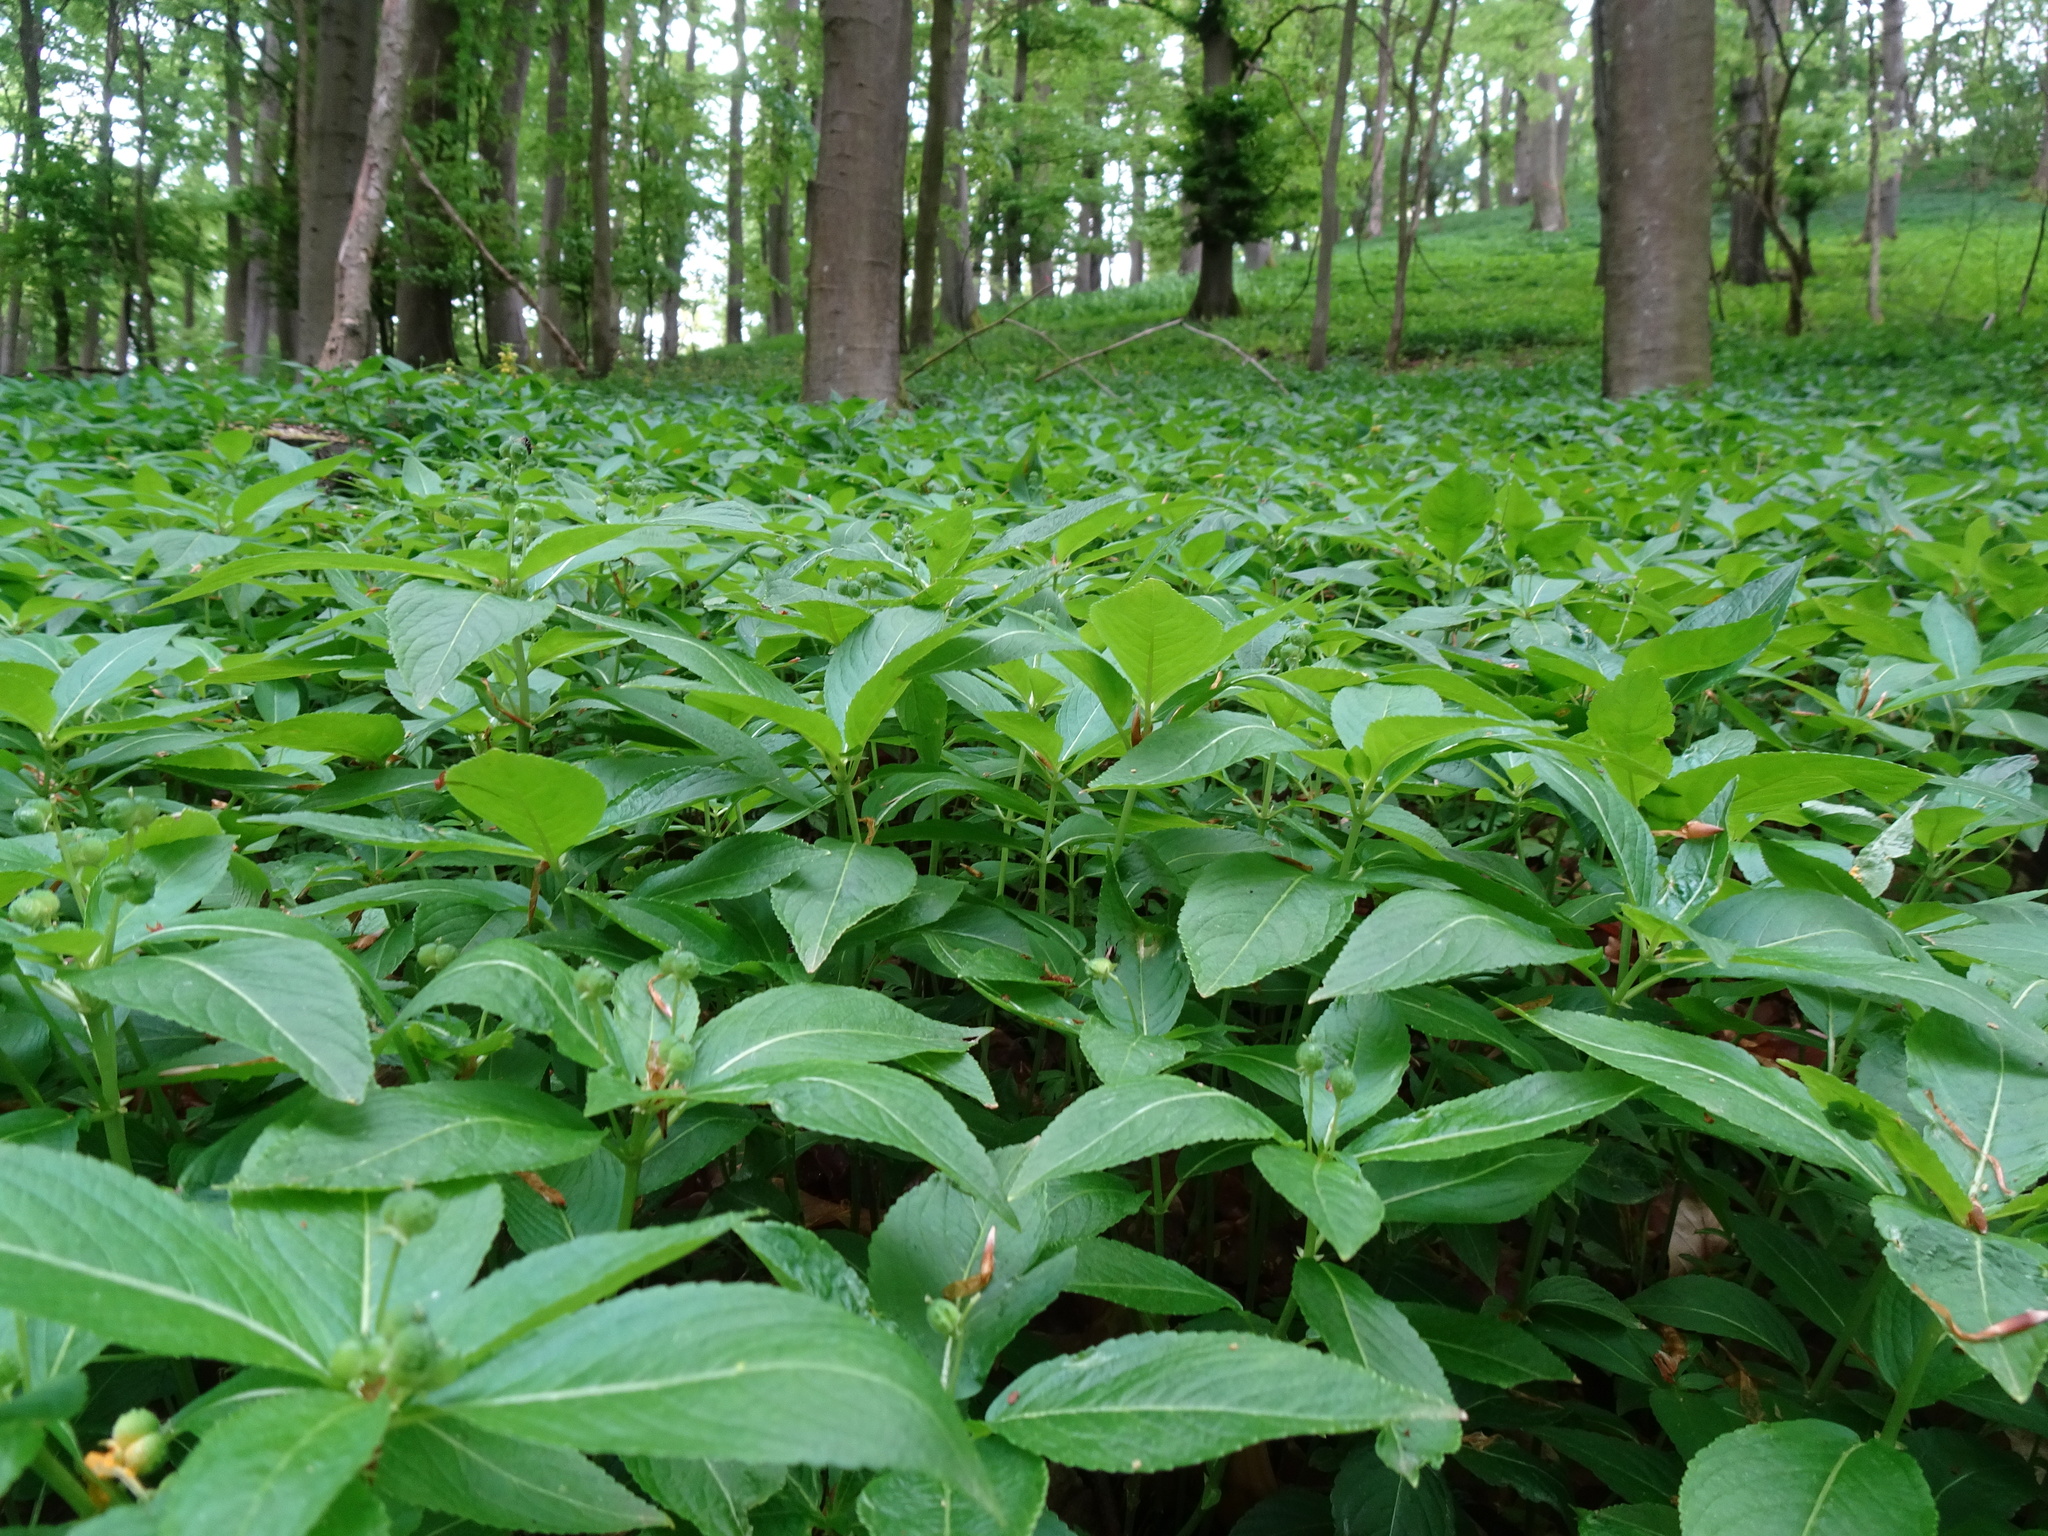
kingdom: Plantae
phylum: Tracheophyta
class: Magnoliopsida
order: Malpighiales
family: Euphorbiaceae
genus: Mercurialis
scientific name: Mercurialis perennis
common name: Dog mercury
